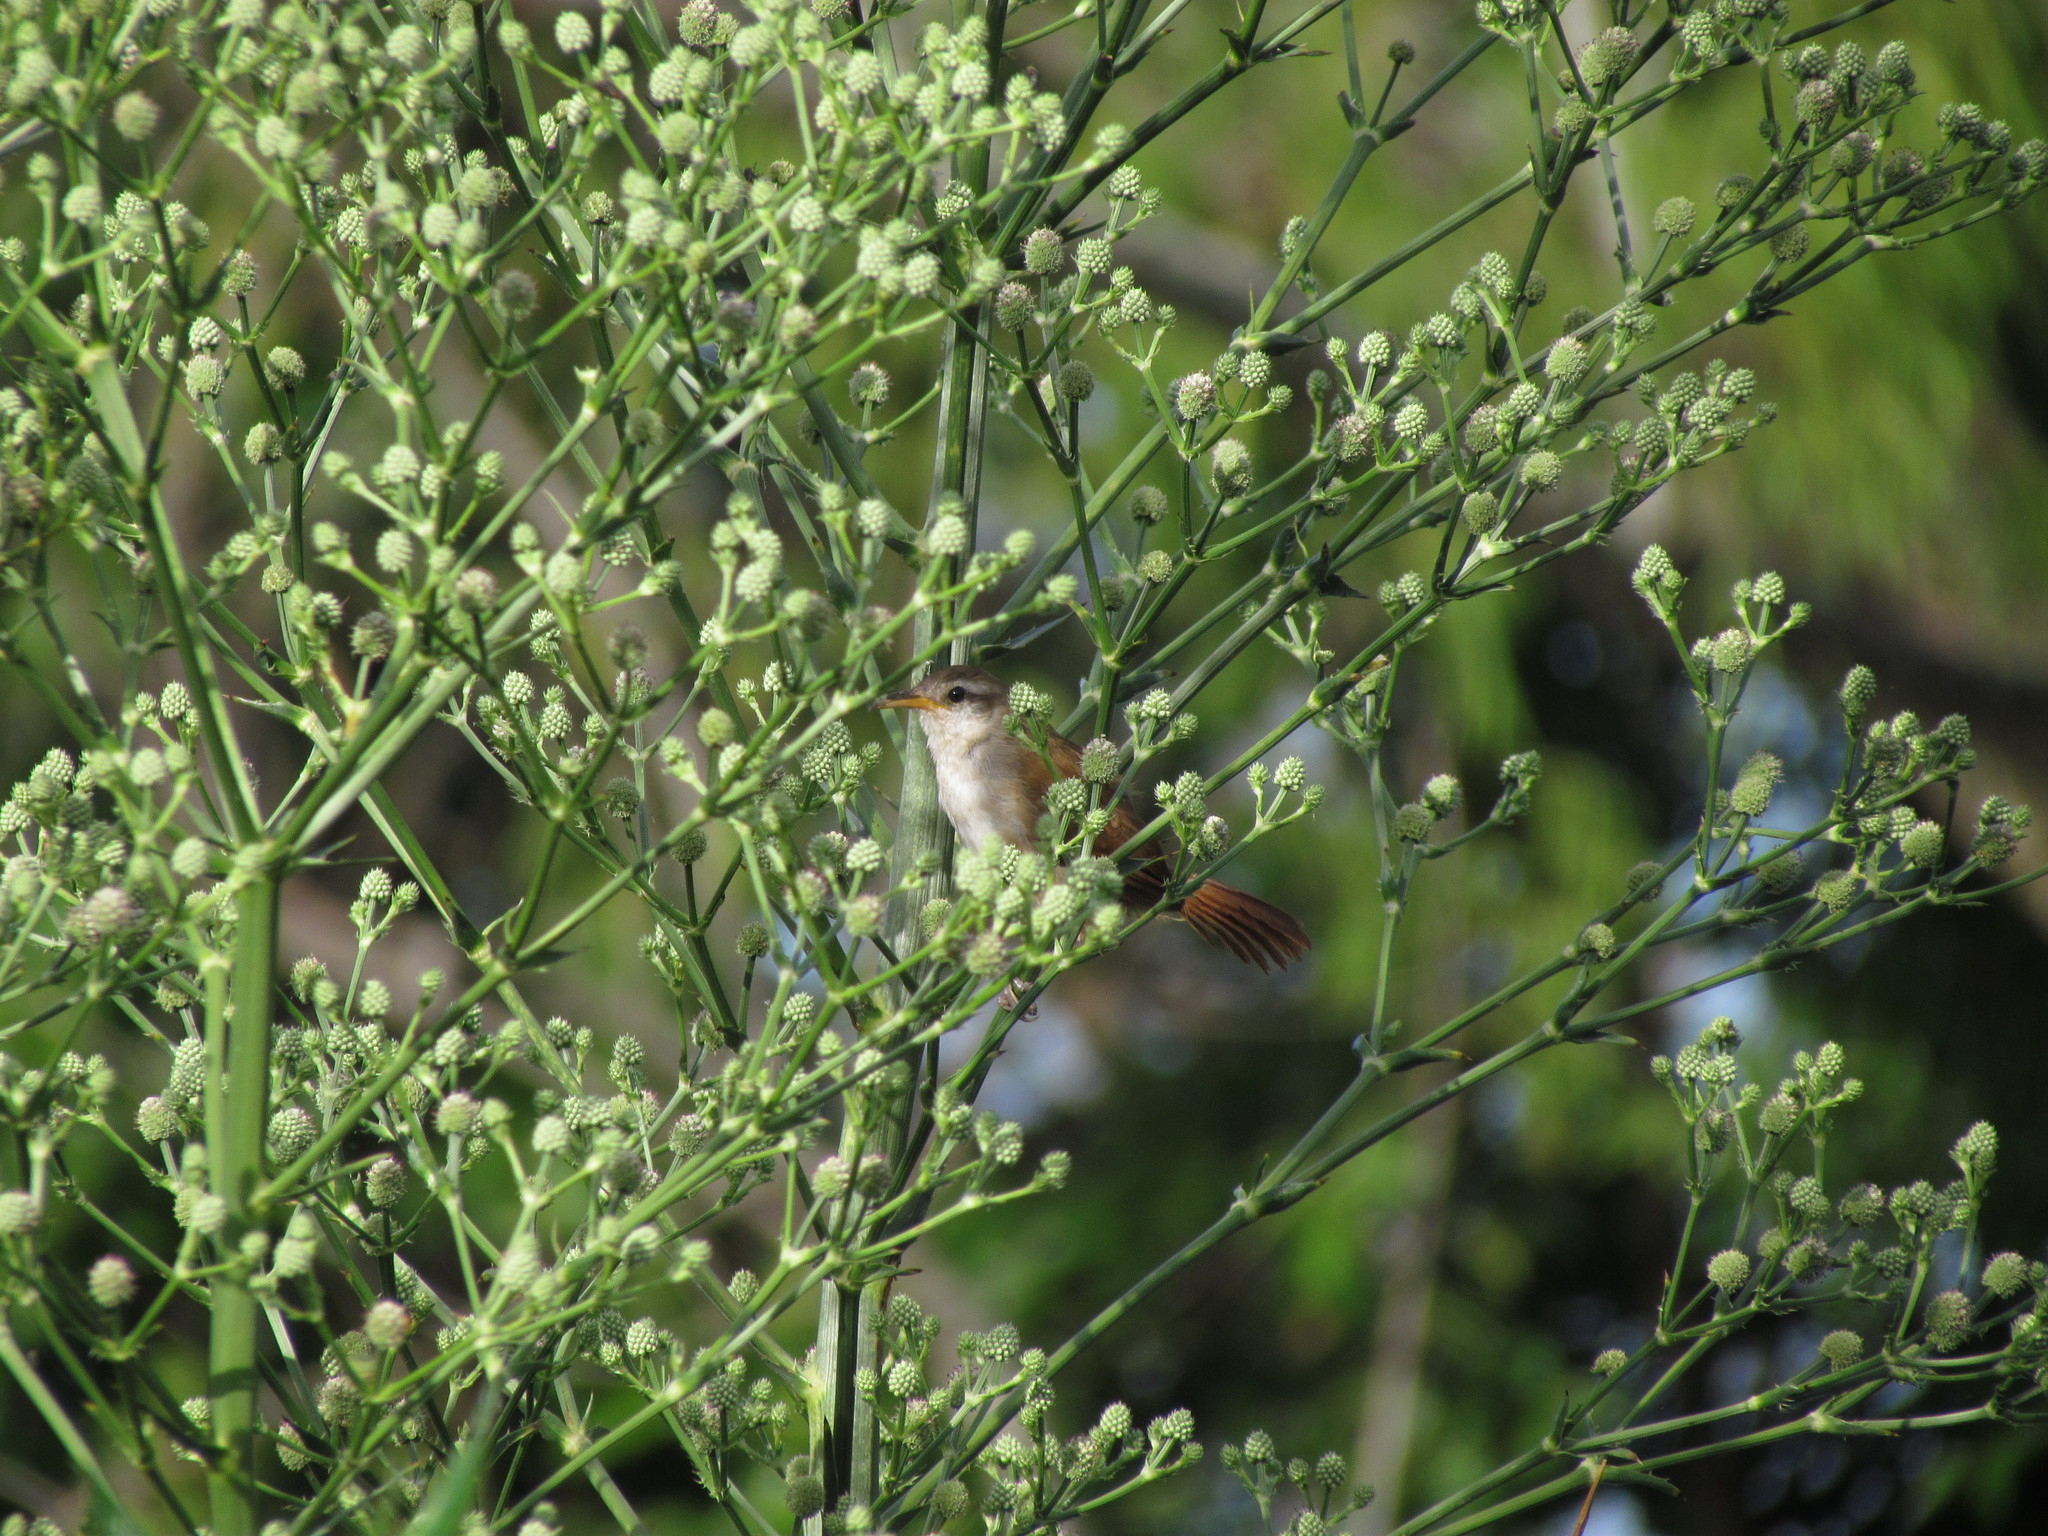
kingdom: Animalia
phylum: Chordata
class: Aves
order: Passeriformes
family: Furnariidae
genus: Limnornis
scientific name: Limnornis curvirostris
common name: Curve-billed reedhaunter
